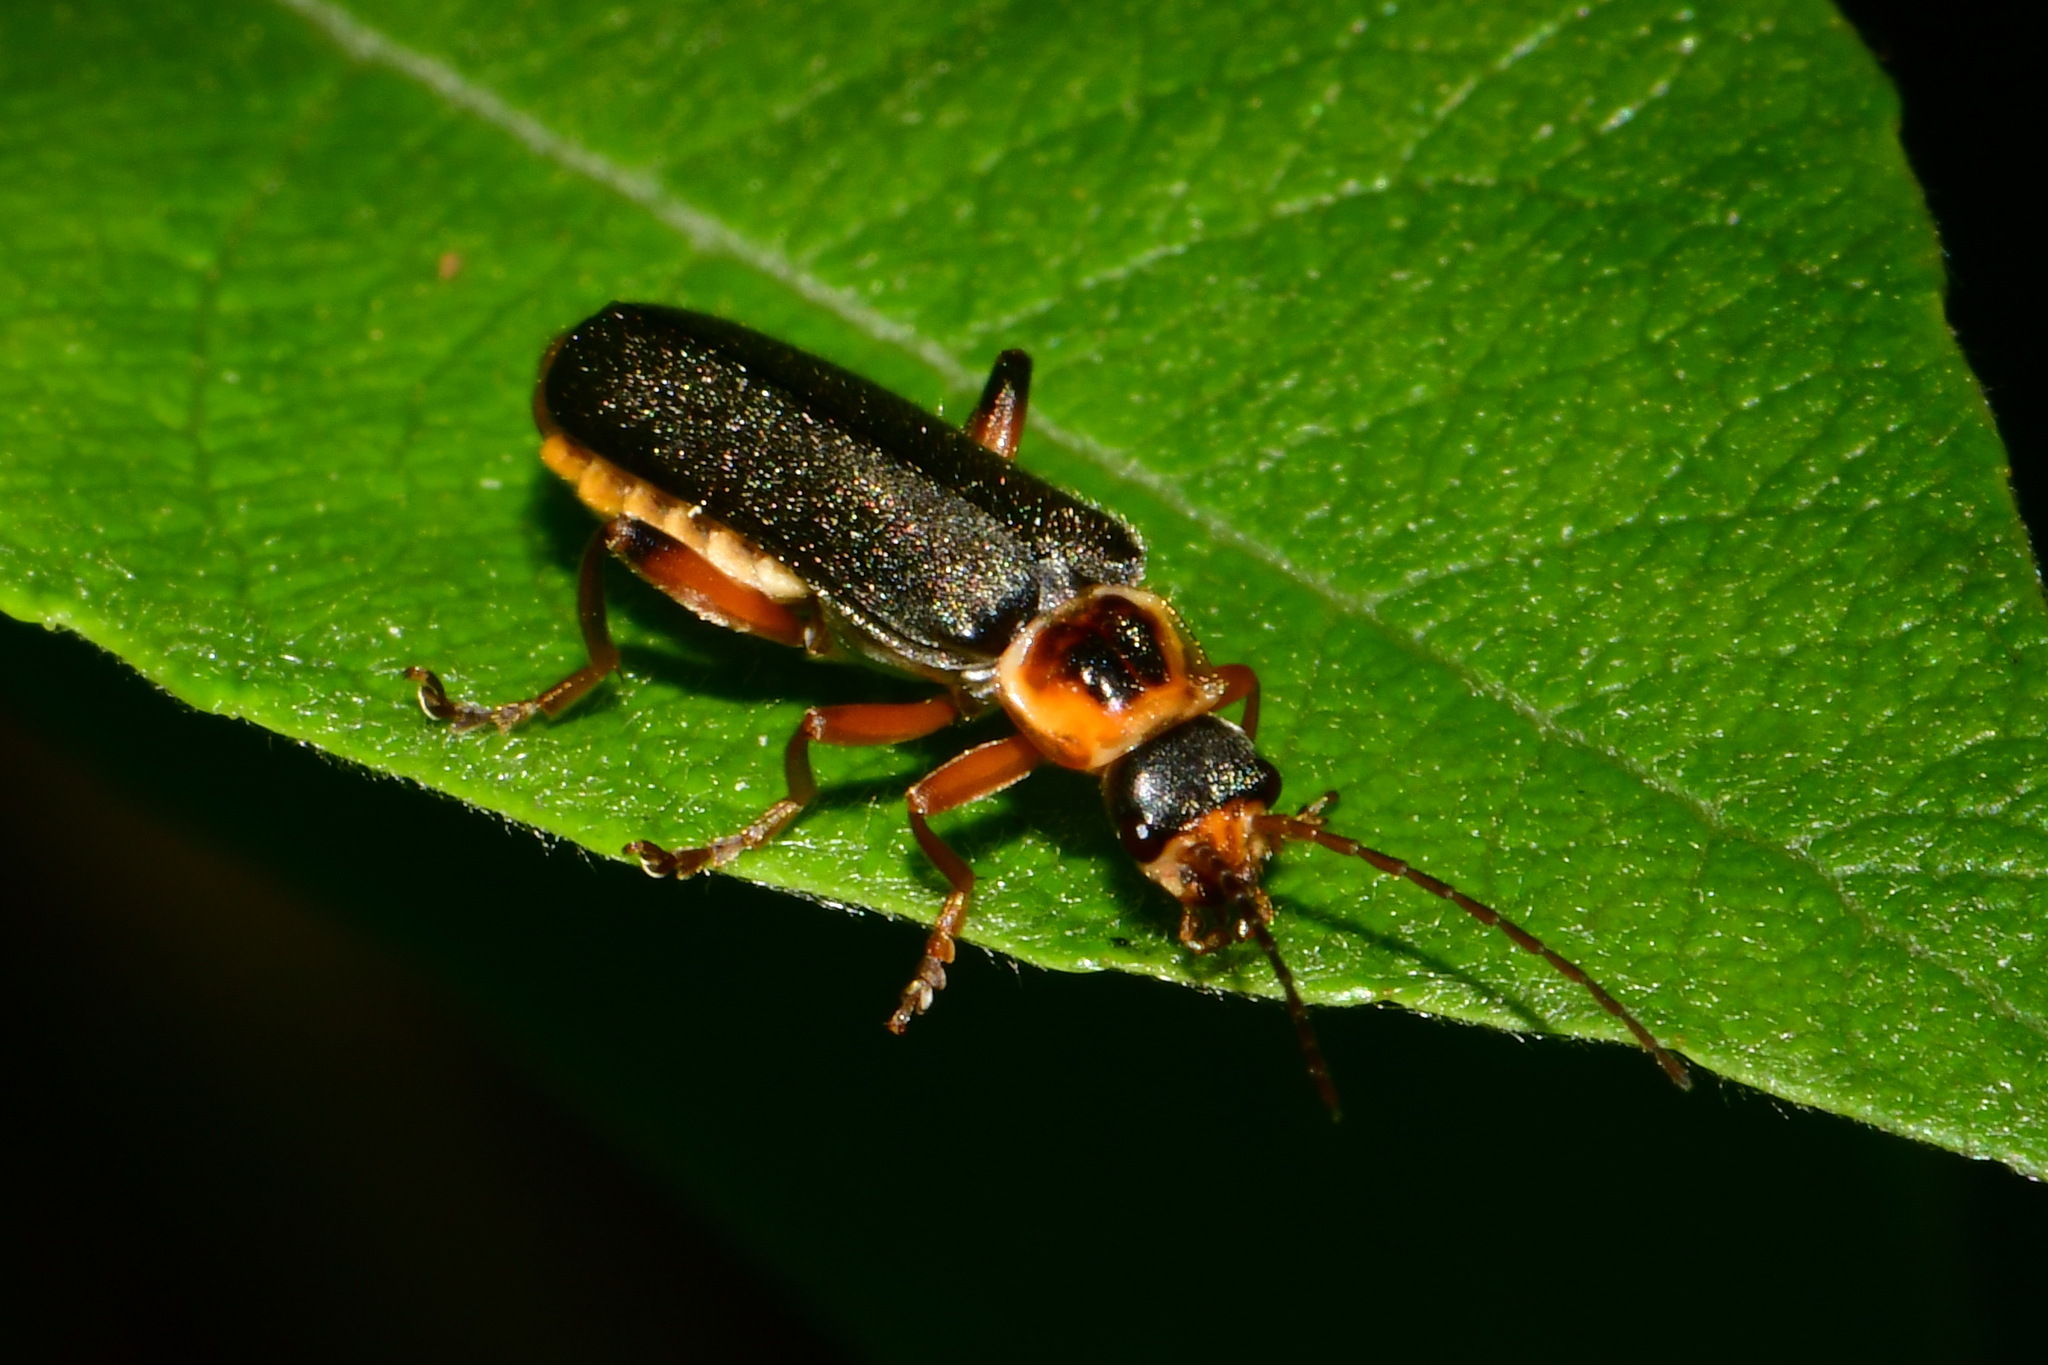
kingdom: Animalia
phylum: Arthropoda
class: Insecta
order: Coleoptera
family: Cantharidae
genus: Cantharis
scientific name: Cantharis nigricans
